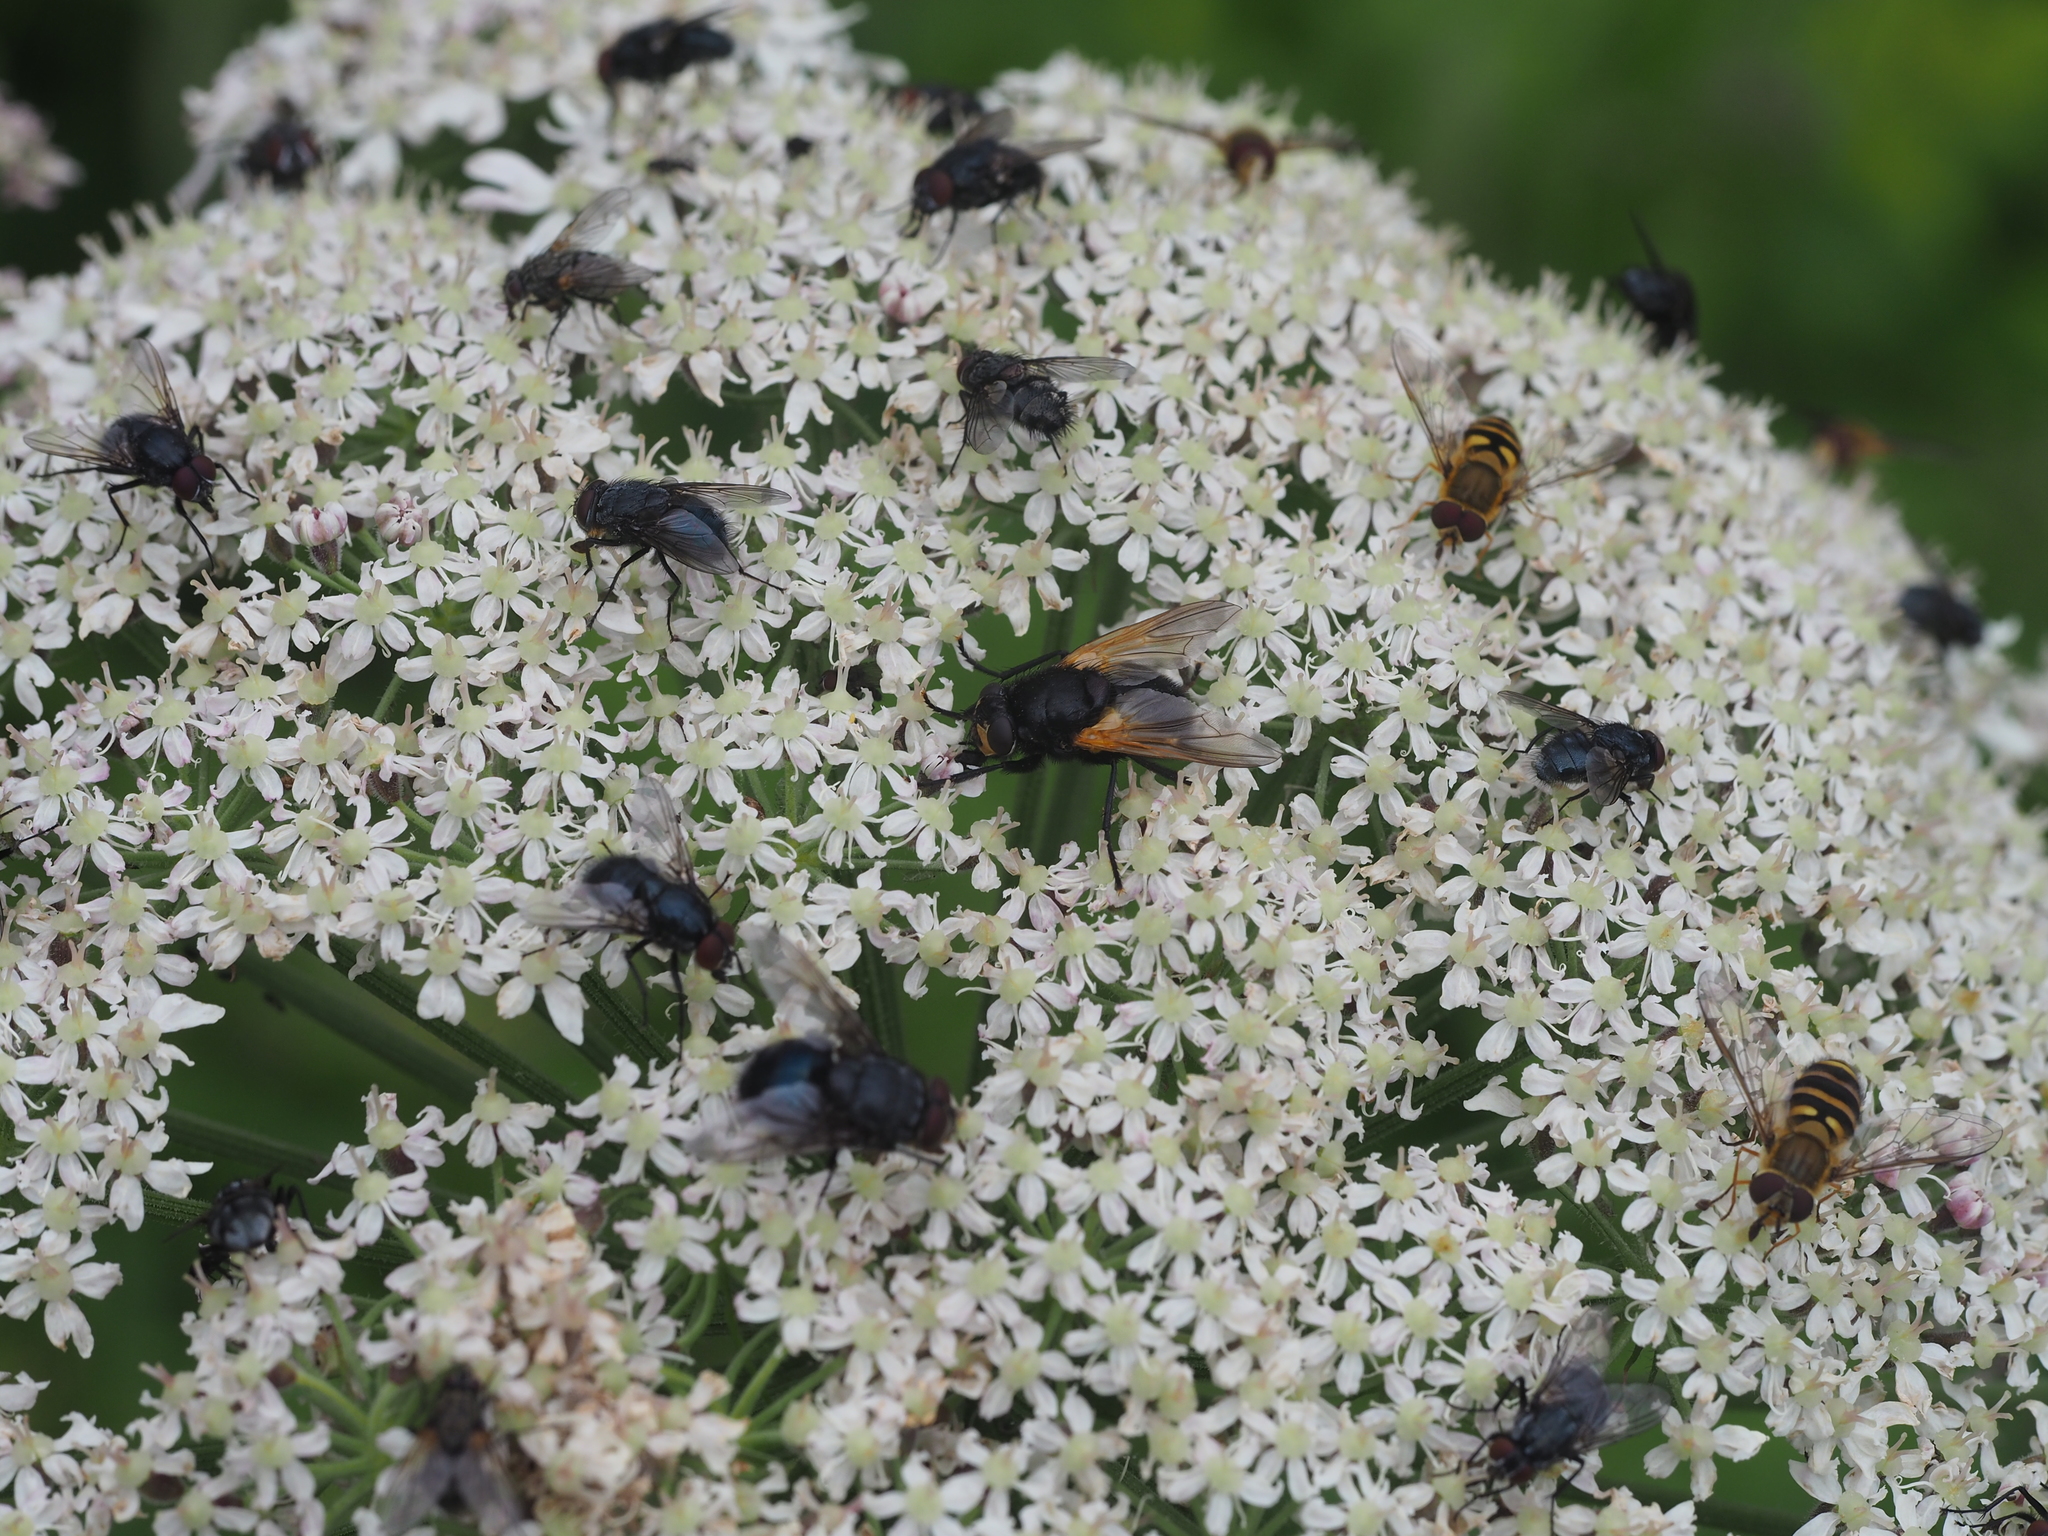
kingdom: Animalia
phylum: Arthropoda
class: Insecta
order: Diptera
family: Muscidae
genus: Mesembrina
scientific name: Mesembrina meridiana
